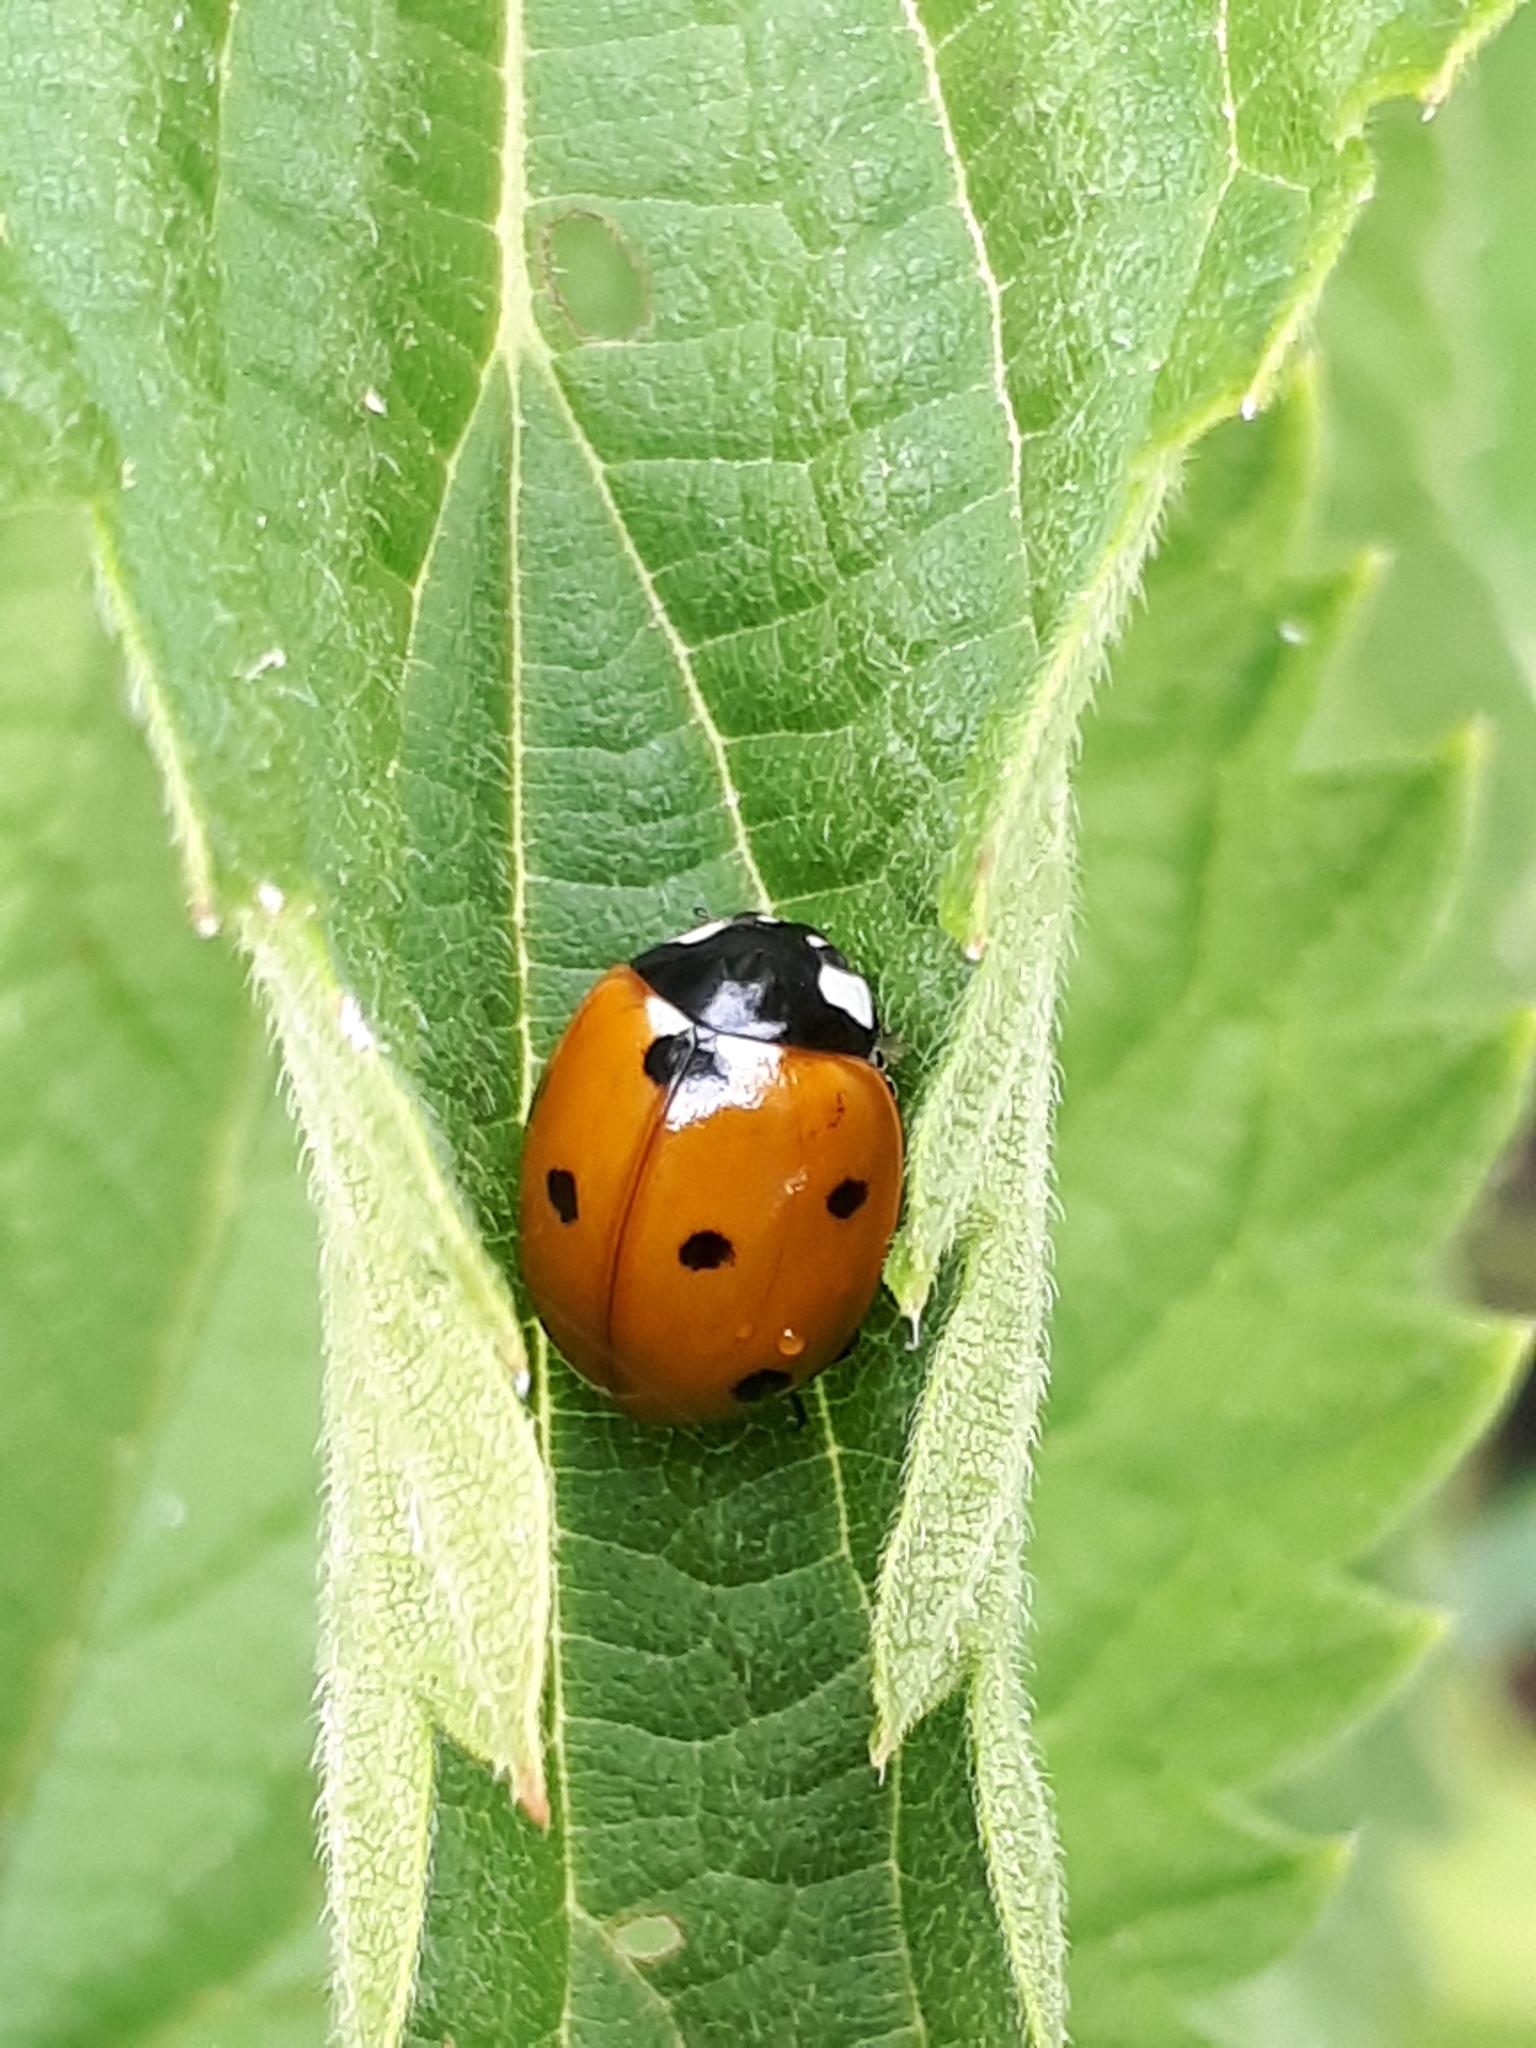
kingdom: Animalia
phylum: Arthropoda
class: Insecta
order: Coleoptera
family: Coccinellidae
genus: Coccinella
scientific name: Coccinella septempunctata
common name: Sevenspotted lady beetle
